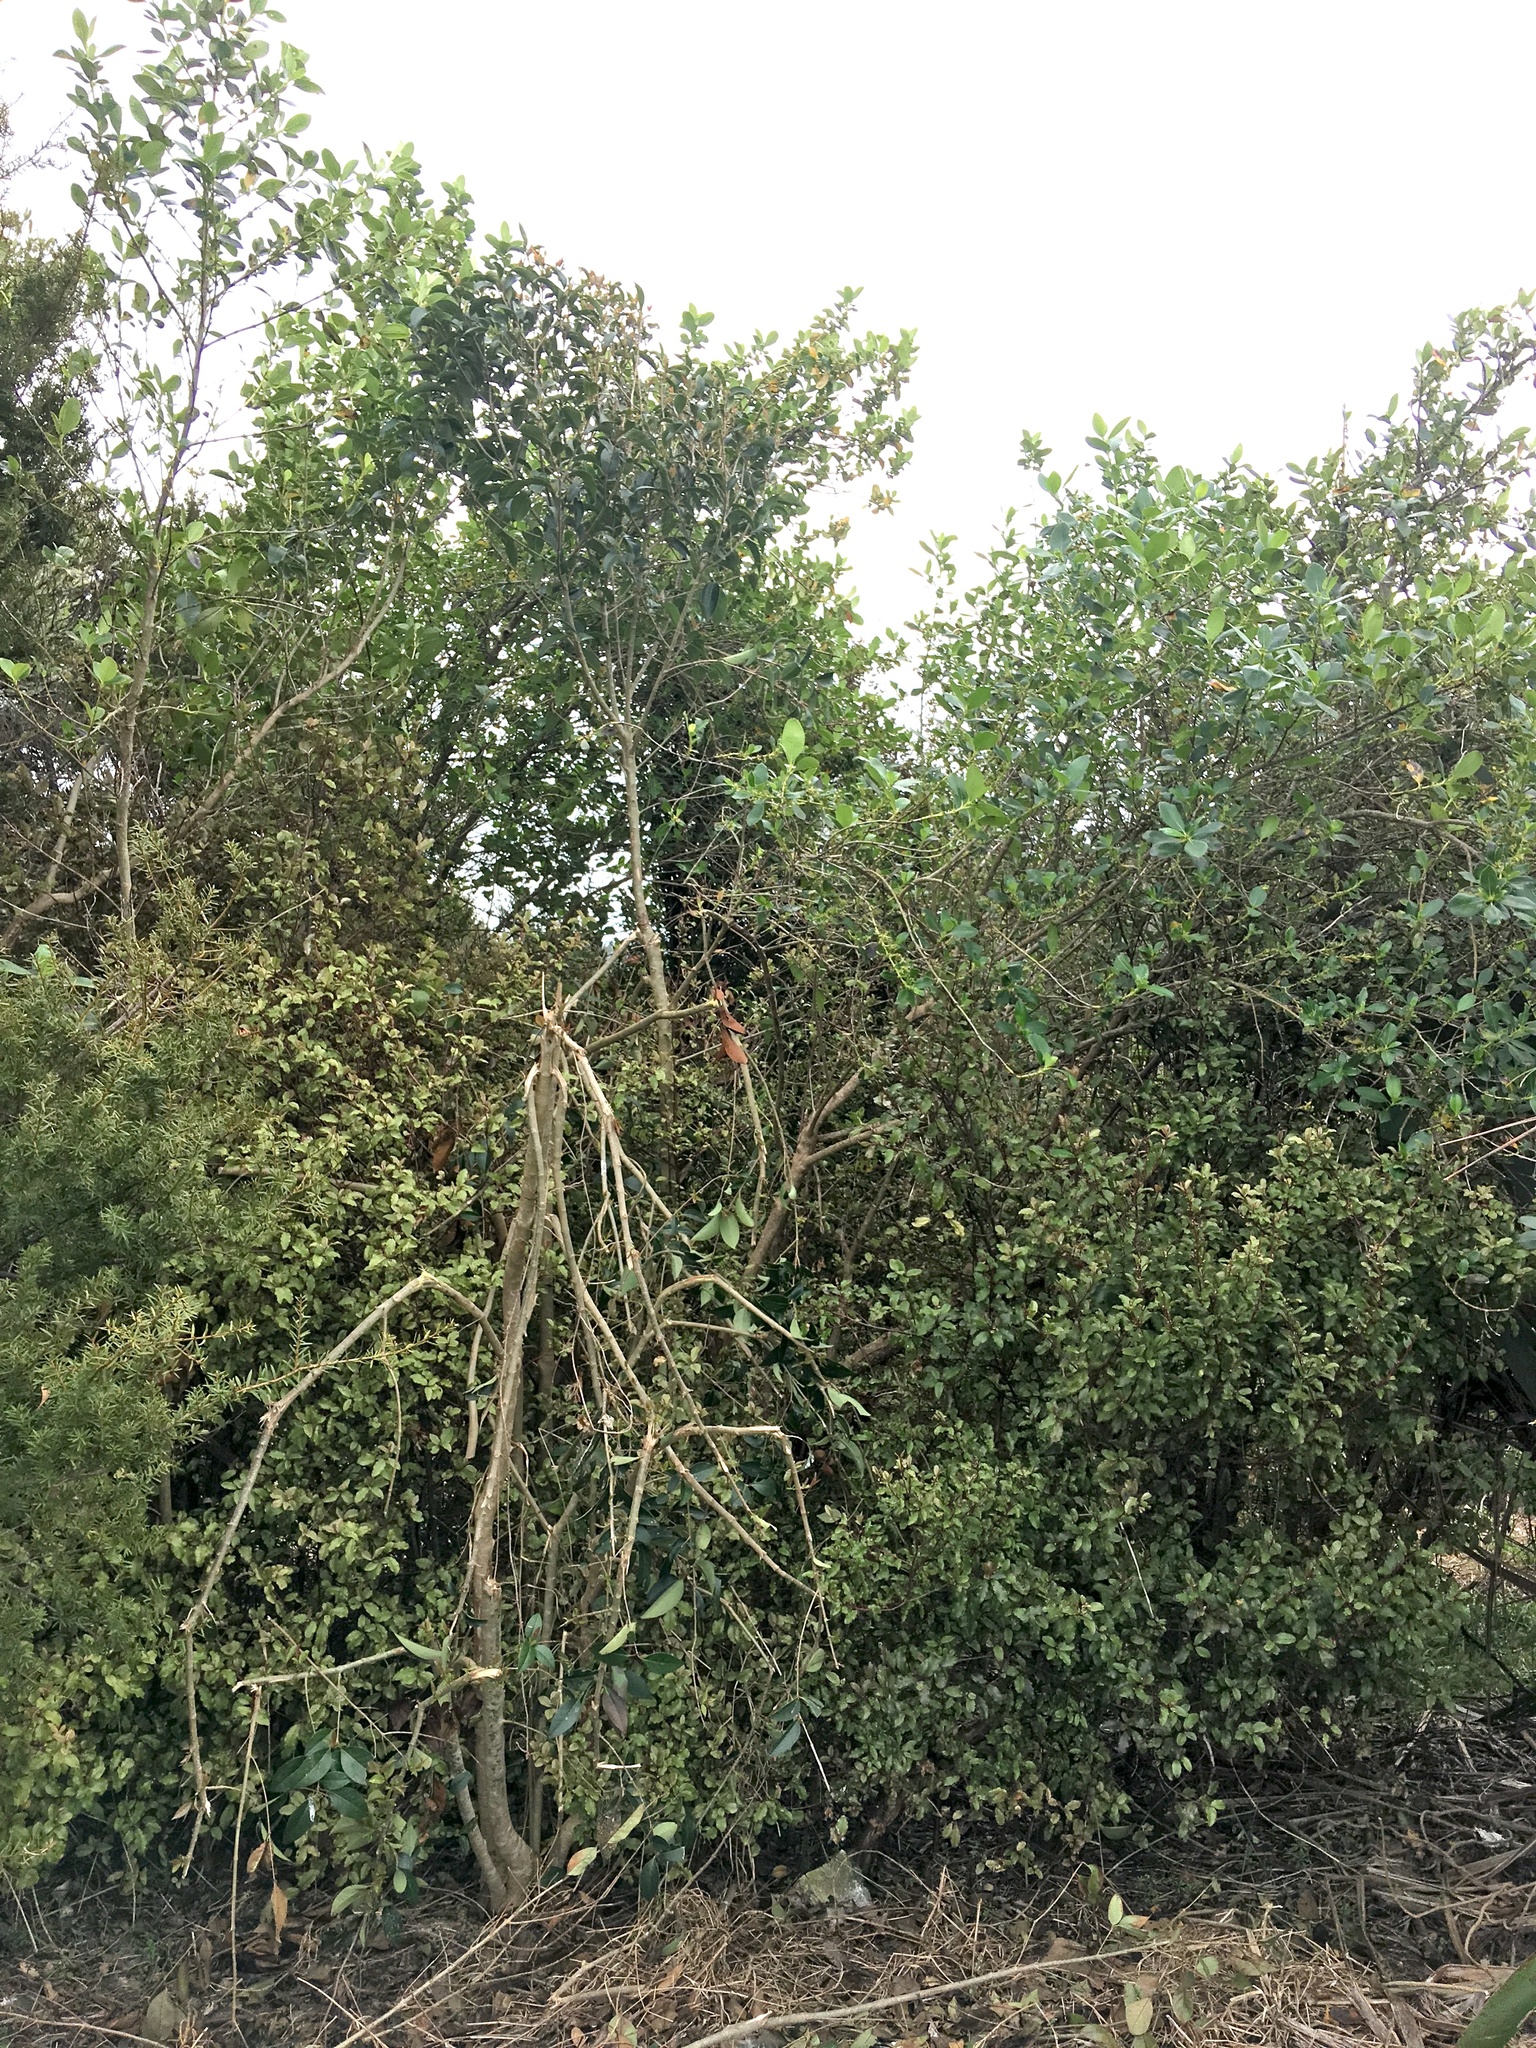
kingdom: Plantae
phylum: Tracheophyta
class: Magnoliopsida
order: Lamiales
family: Oleaceae
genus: Ligustrum
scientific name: Ligustrum lucidum
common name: Glossy privet
